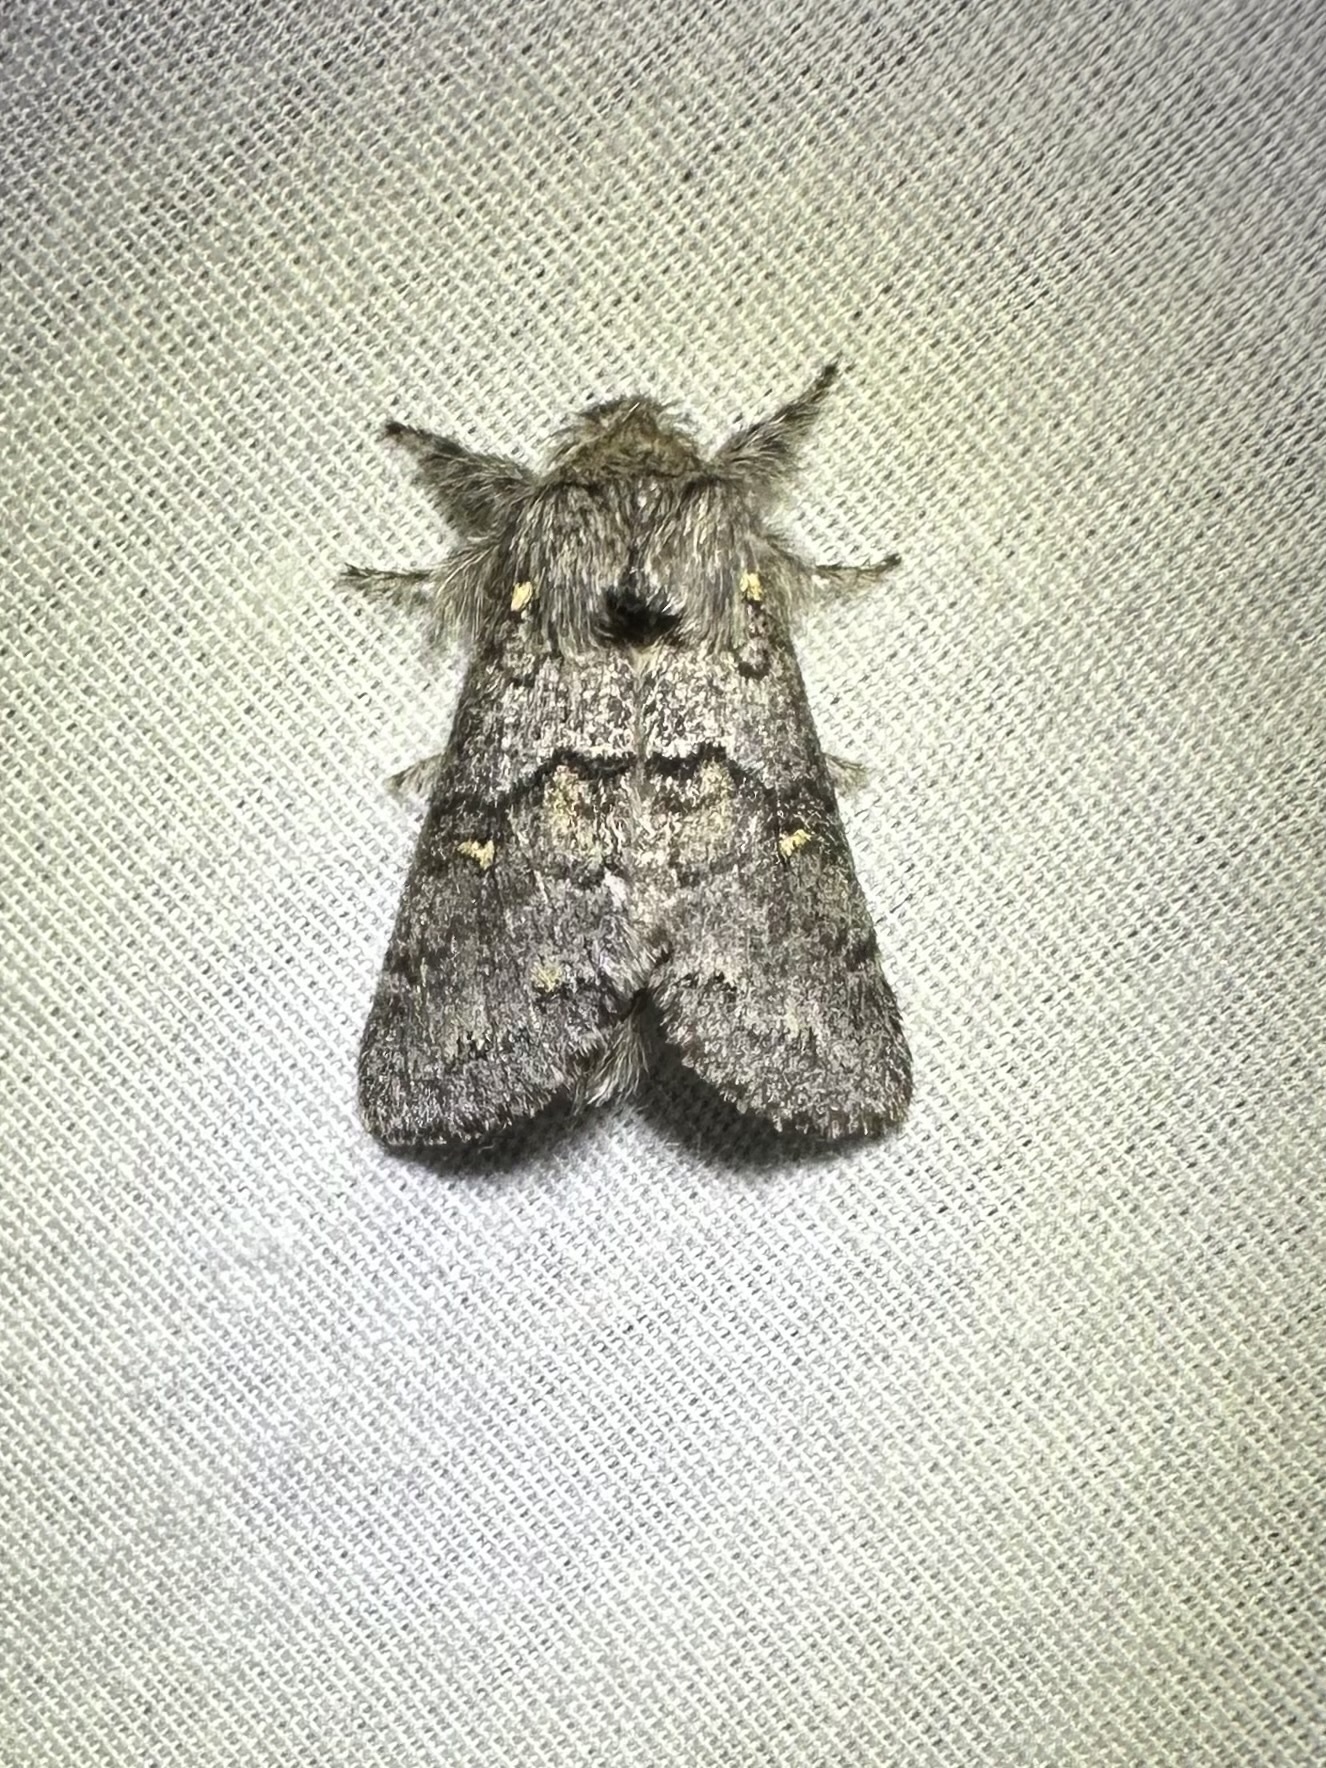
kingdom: Animalia
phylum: Arthropoda
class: Insecta
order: Lepidoptera
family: Notodontidae
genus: Gluphisia
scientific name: Gluphisia avimacula
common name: Four-spotted gluphisia moth
